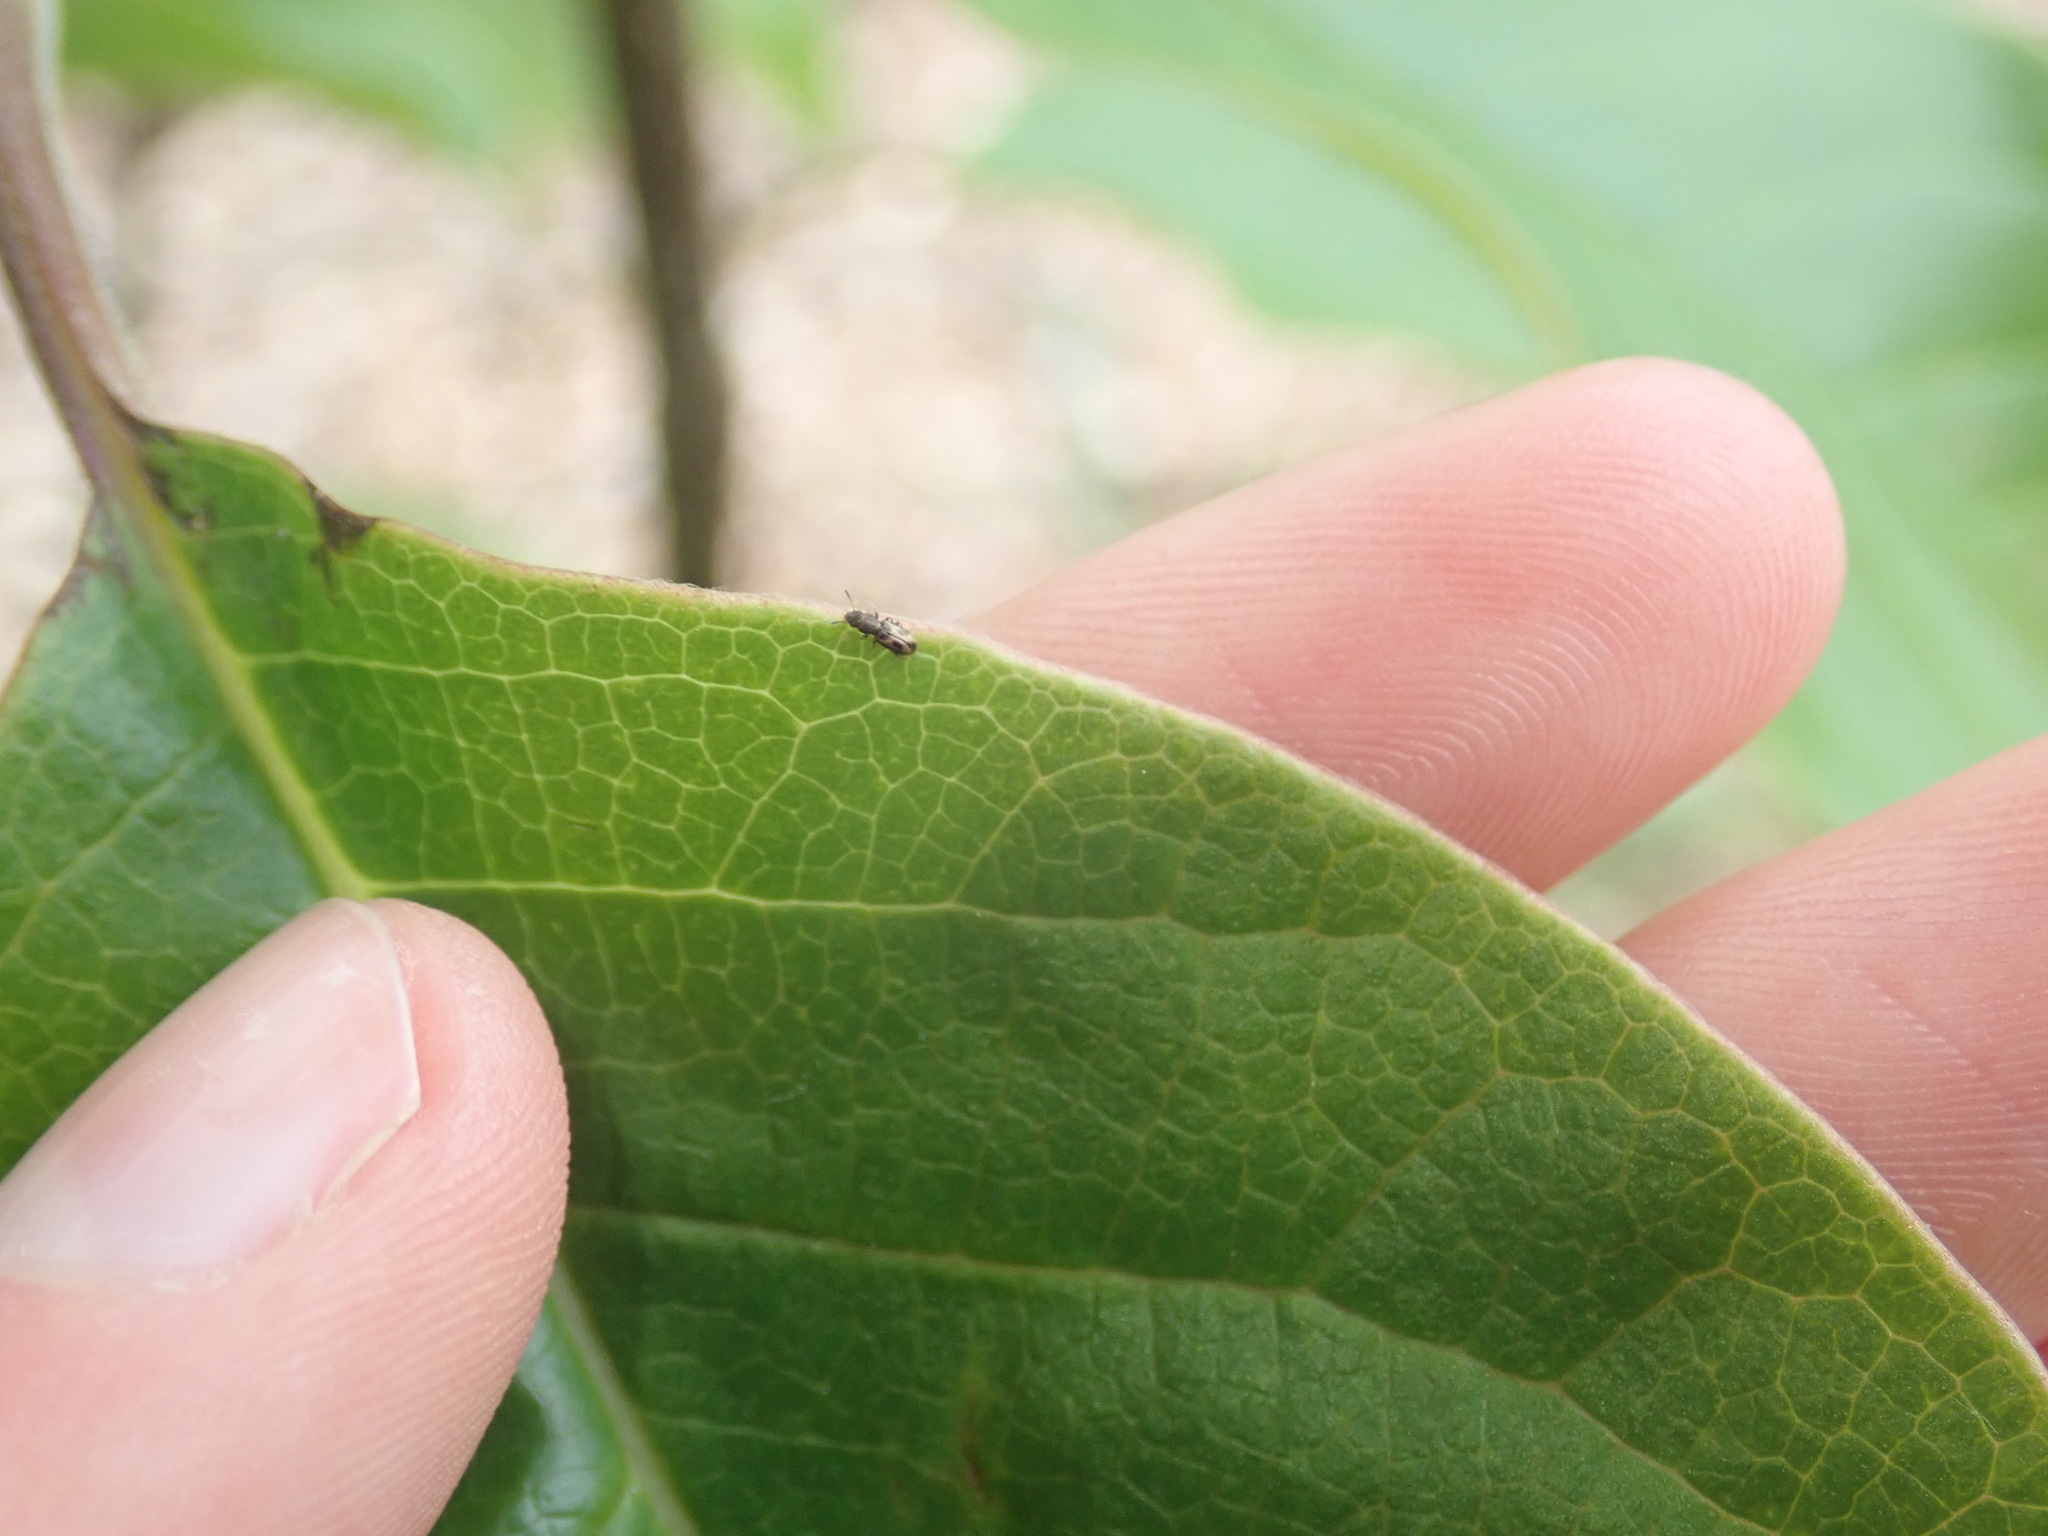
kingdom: Animalia
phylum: Arthropoda
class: Insecta
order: Coleoptera
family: Salpingidae
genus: Salpingus
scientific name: Salpingus
